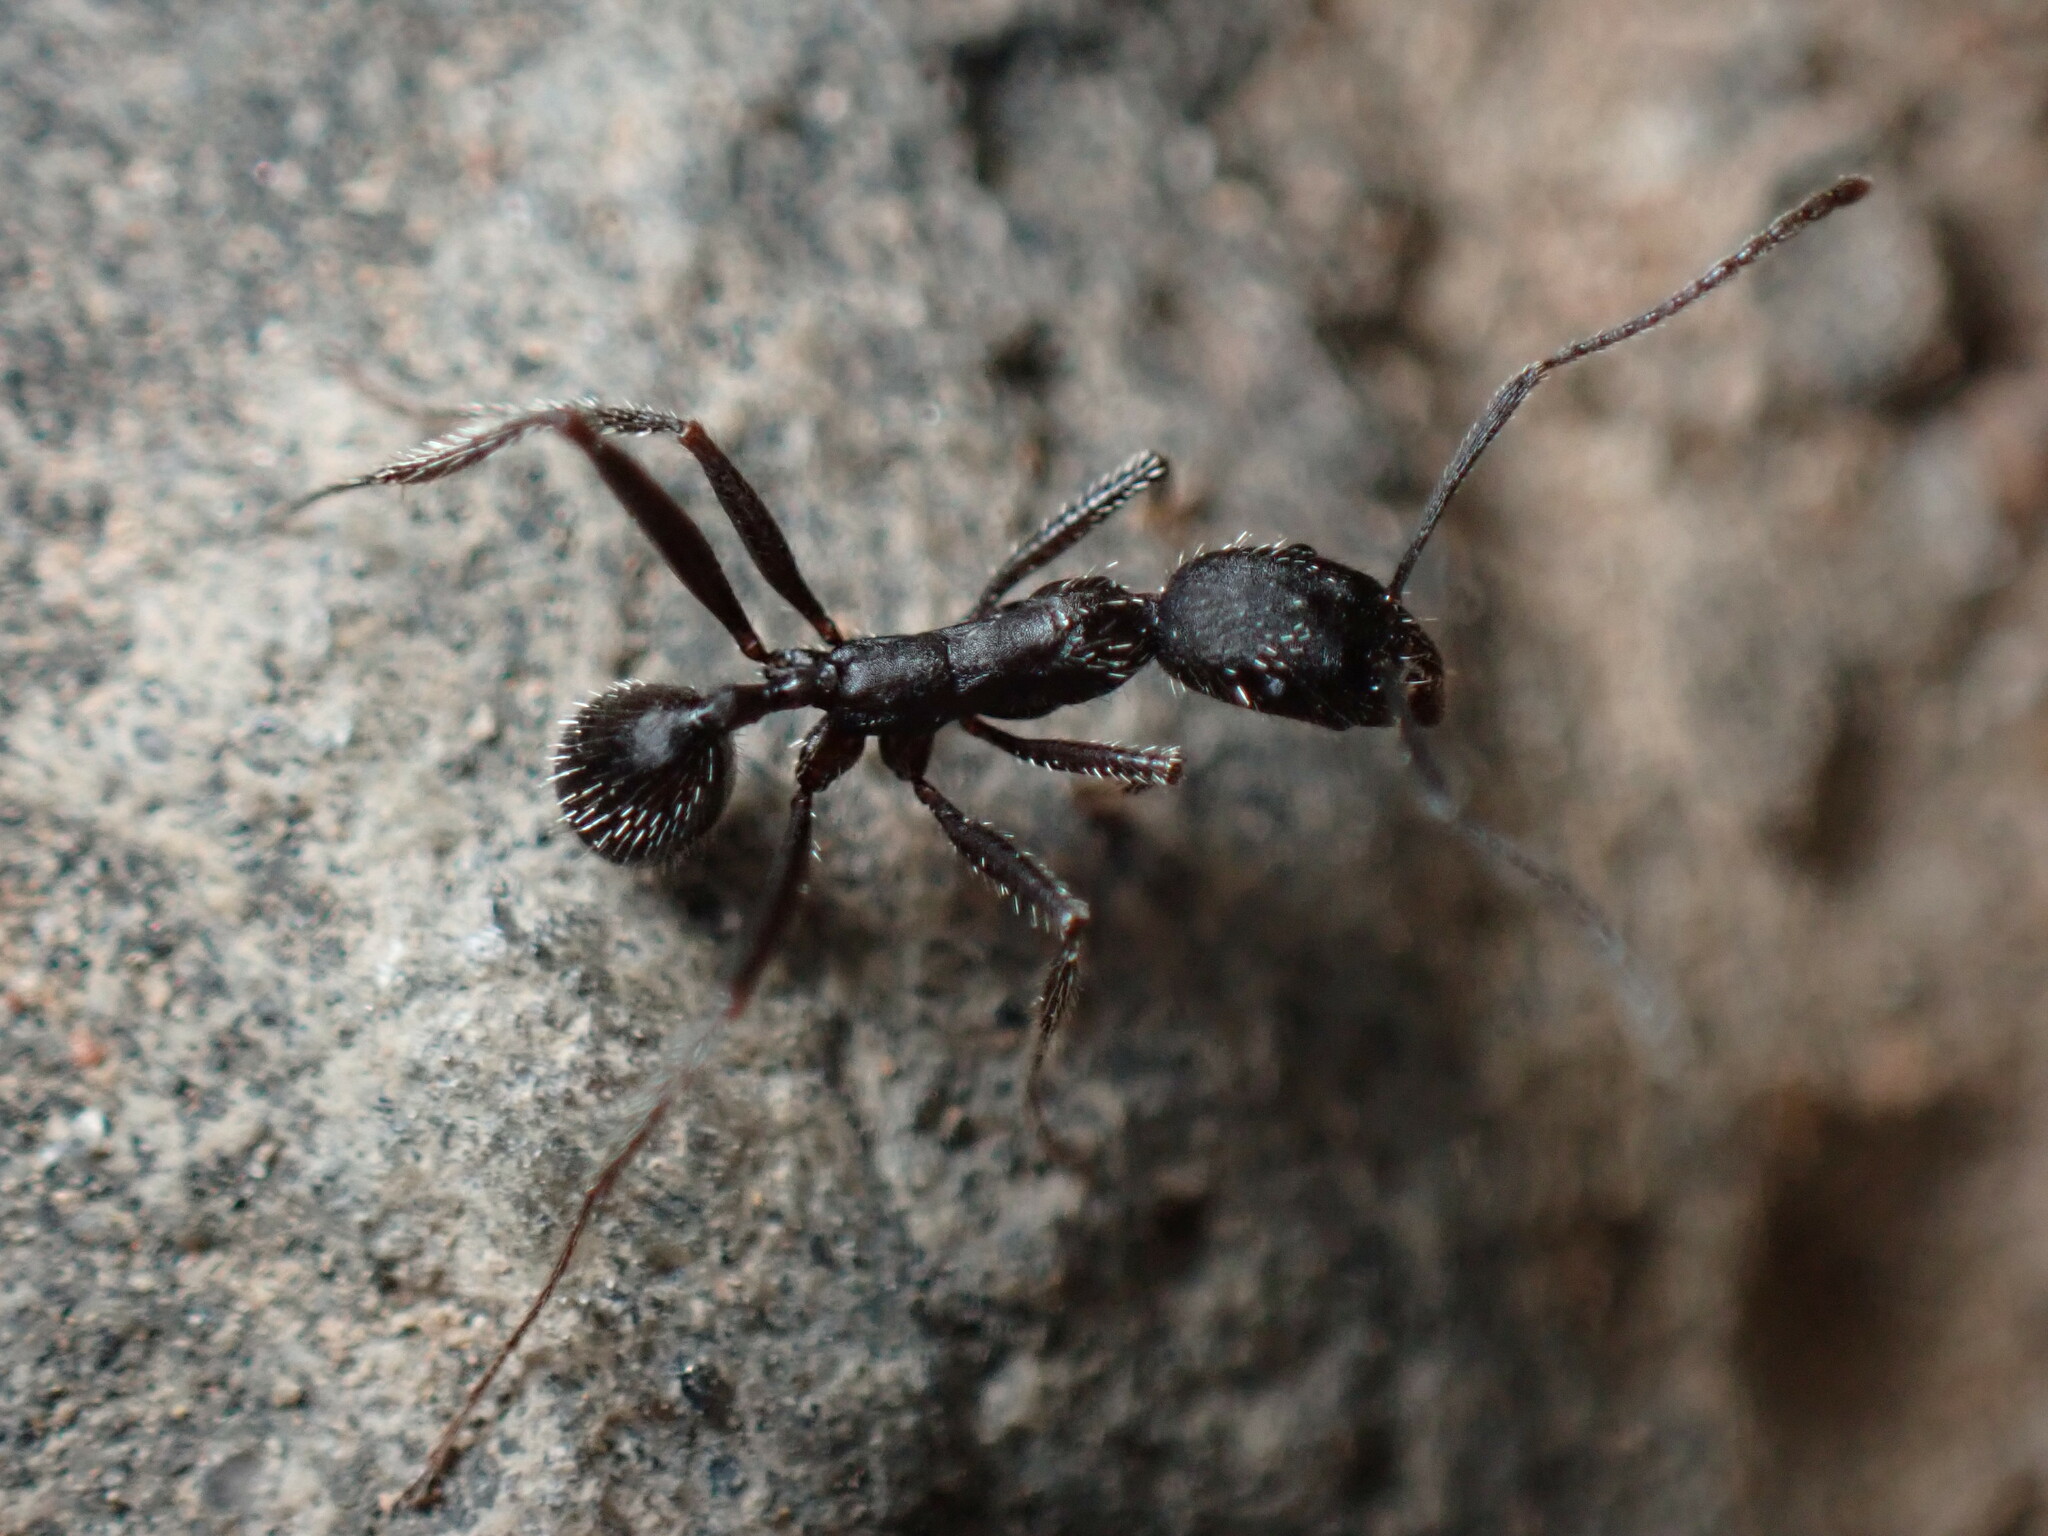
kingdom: Animalia
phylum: Arthropoda
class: Insecta
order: Hymenoptera
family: Formicidae
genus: Aphaenogaster
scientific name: Aphaenogaster iberica
